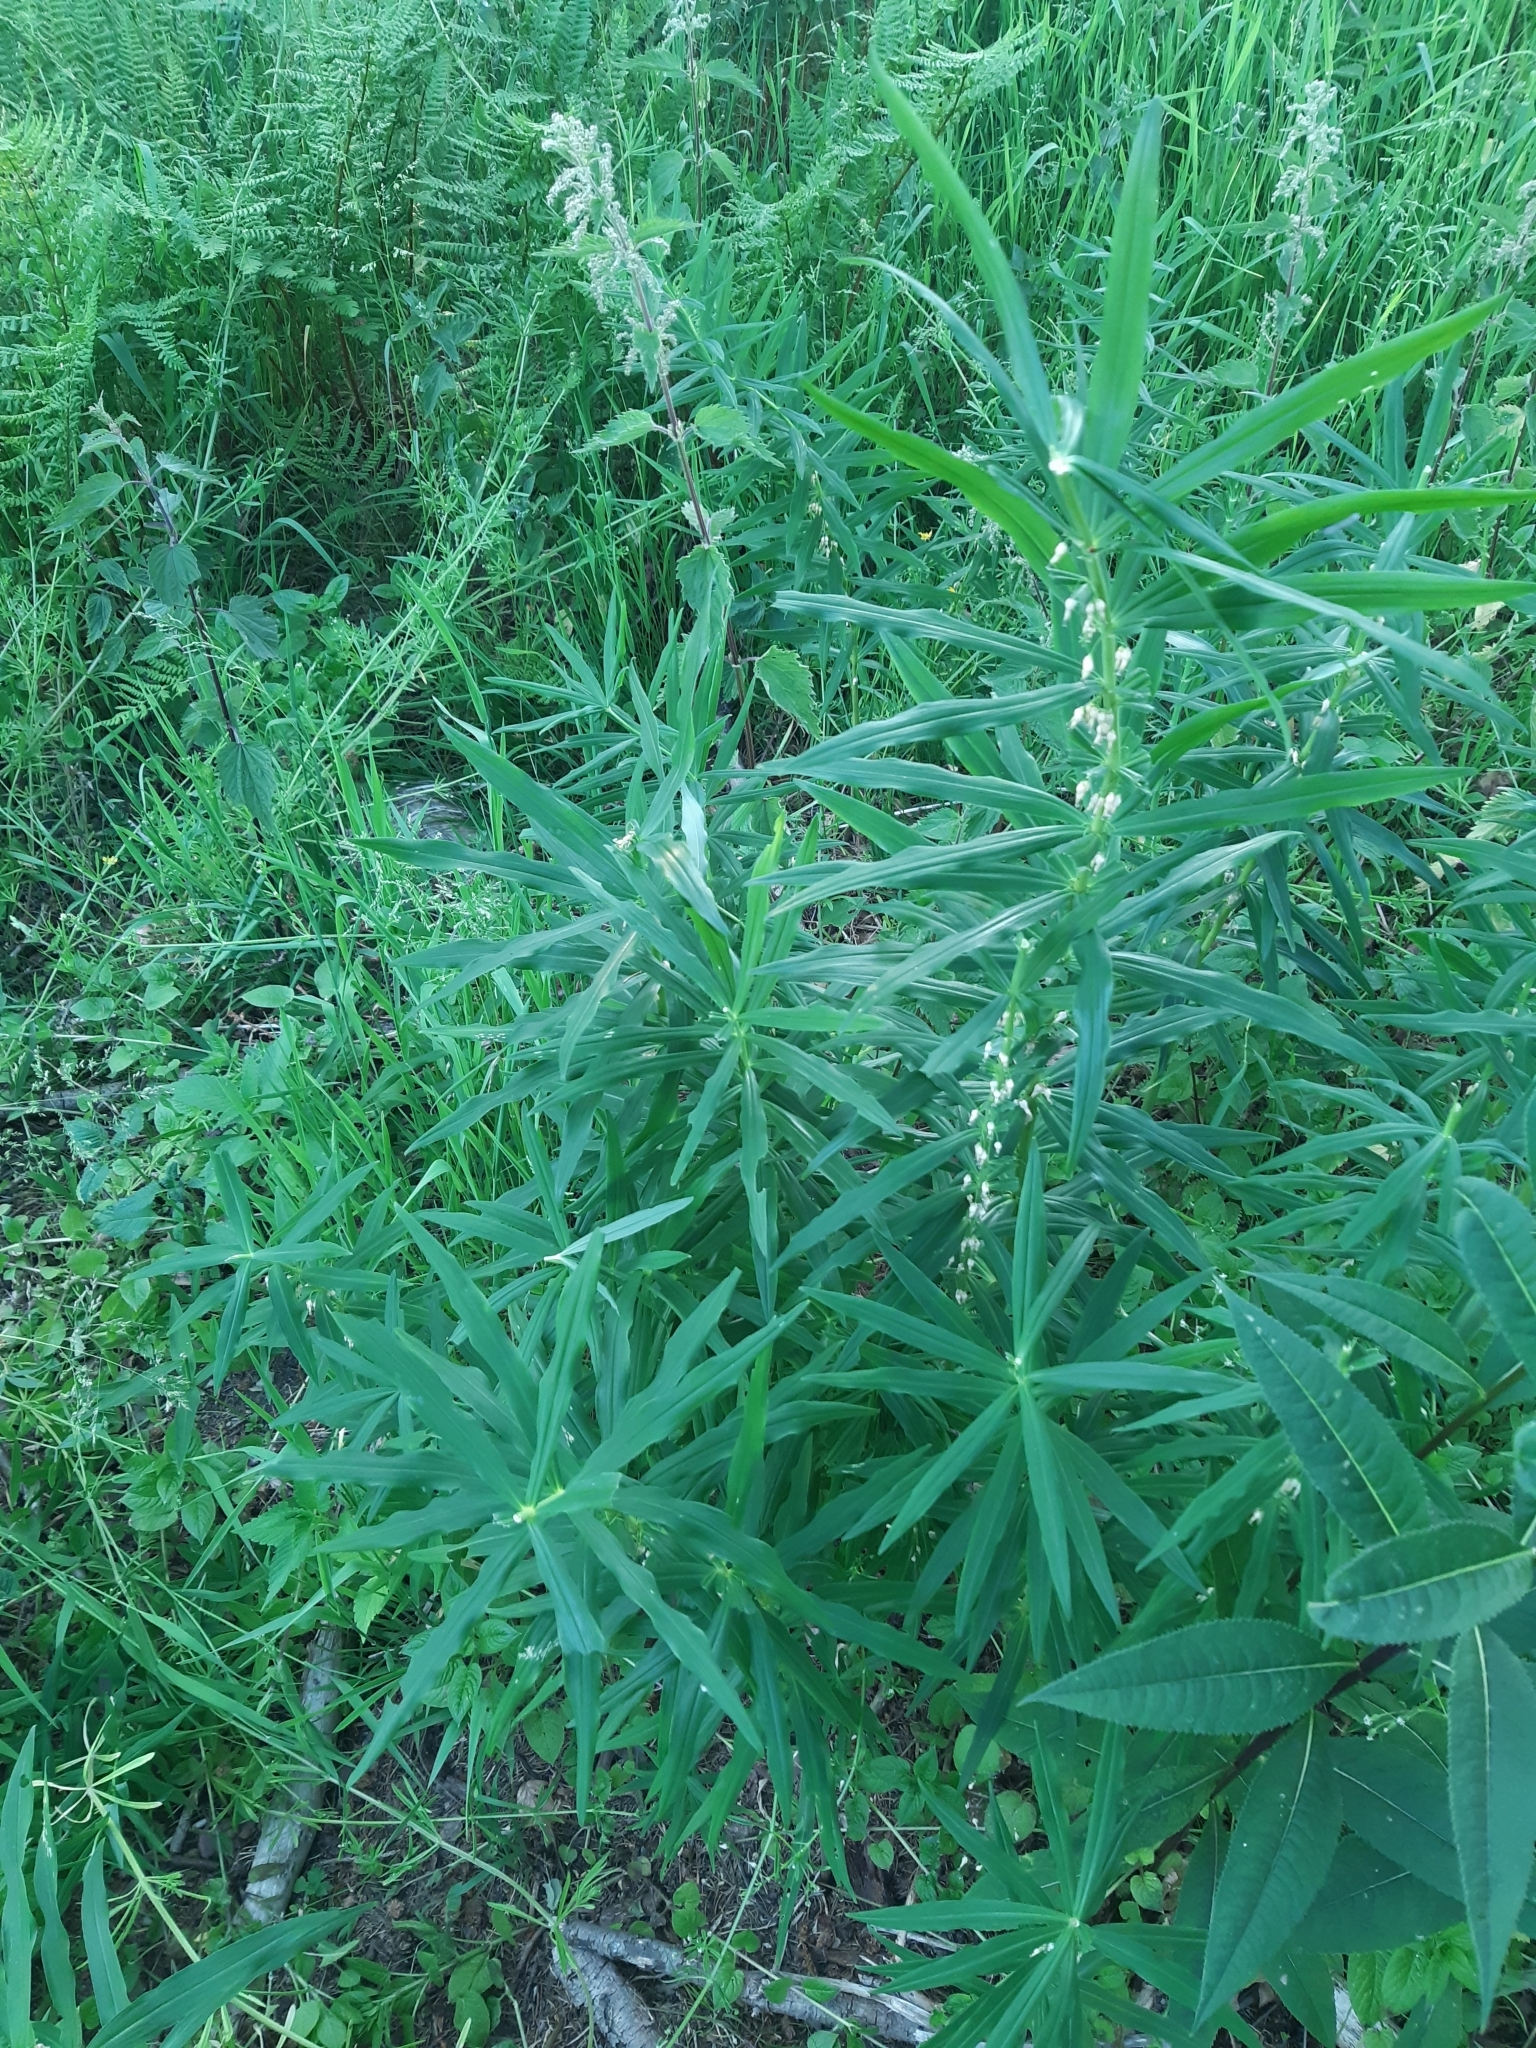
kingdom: Plantae
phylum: Tracheophyta
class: Liliopsida
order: Asparagales
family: Asparagaceae
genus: Polygonatum
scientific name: Polygonatum verticillatum
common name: Whorled solomon's-seal
